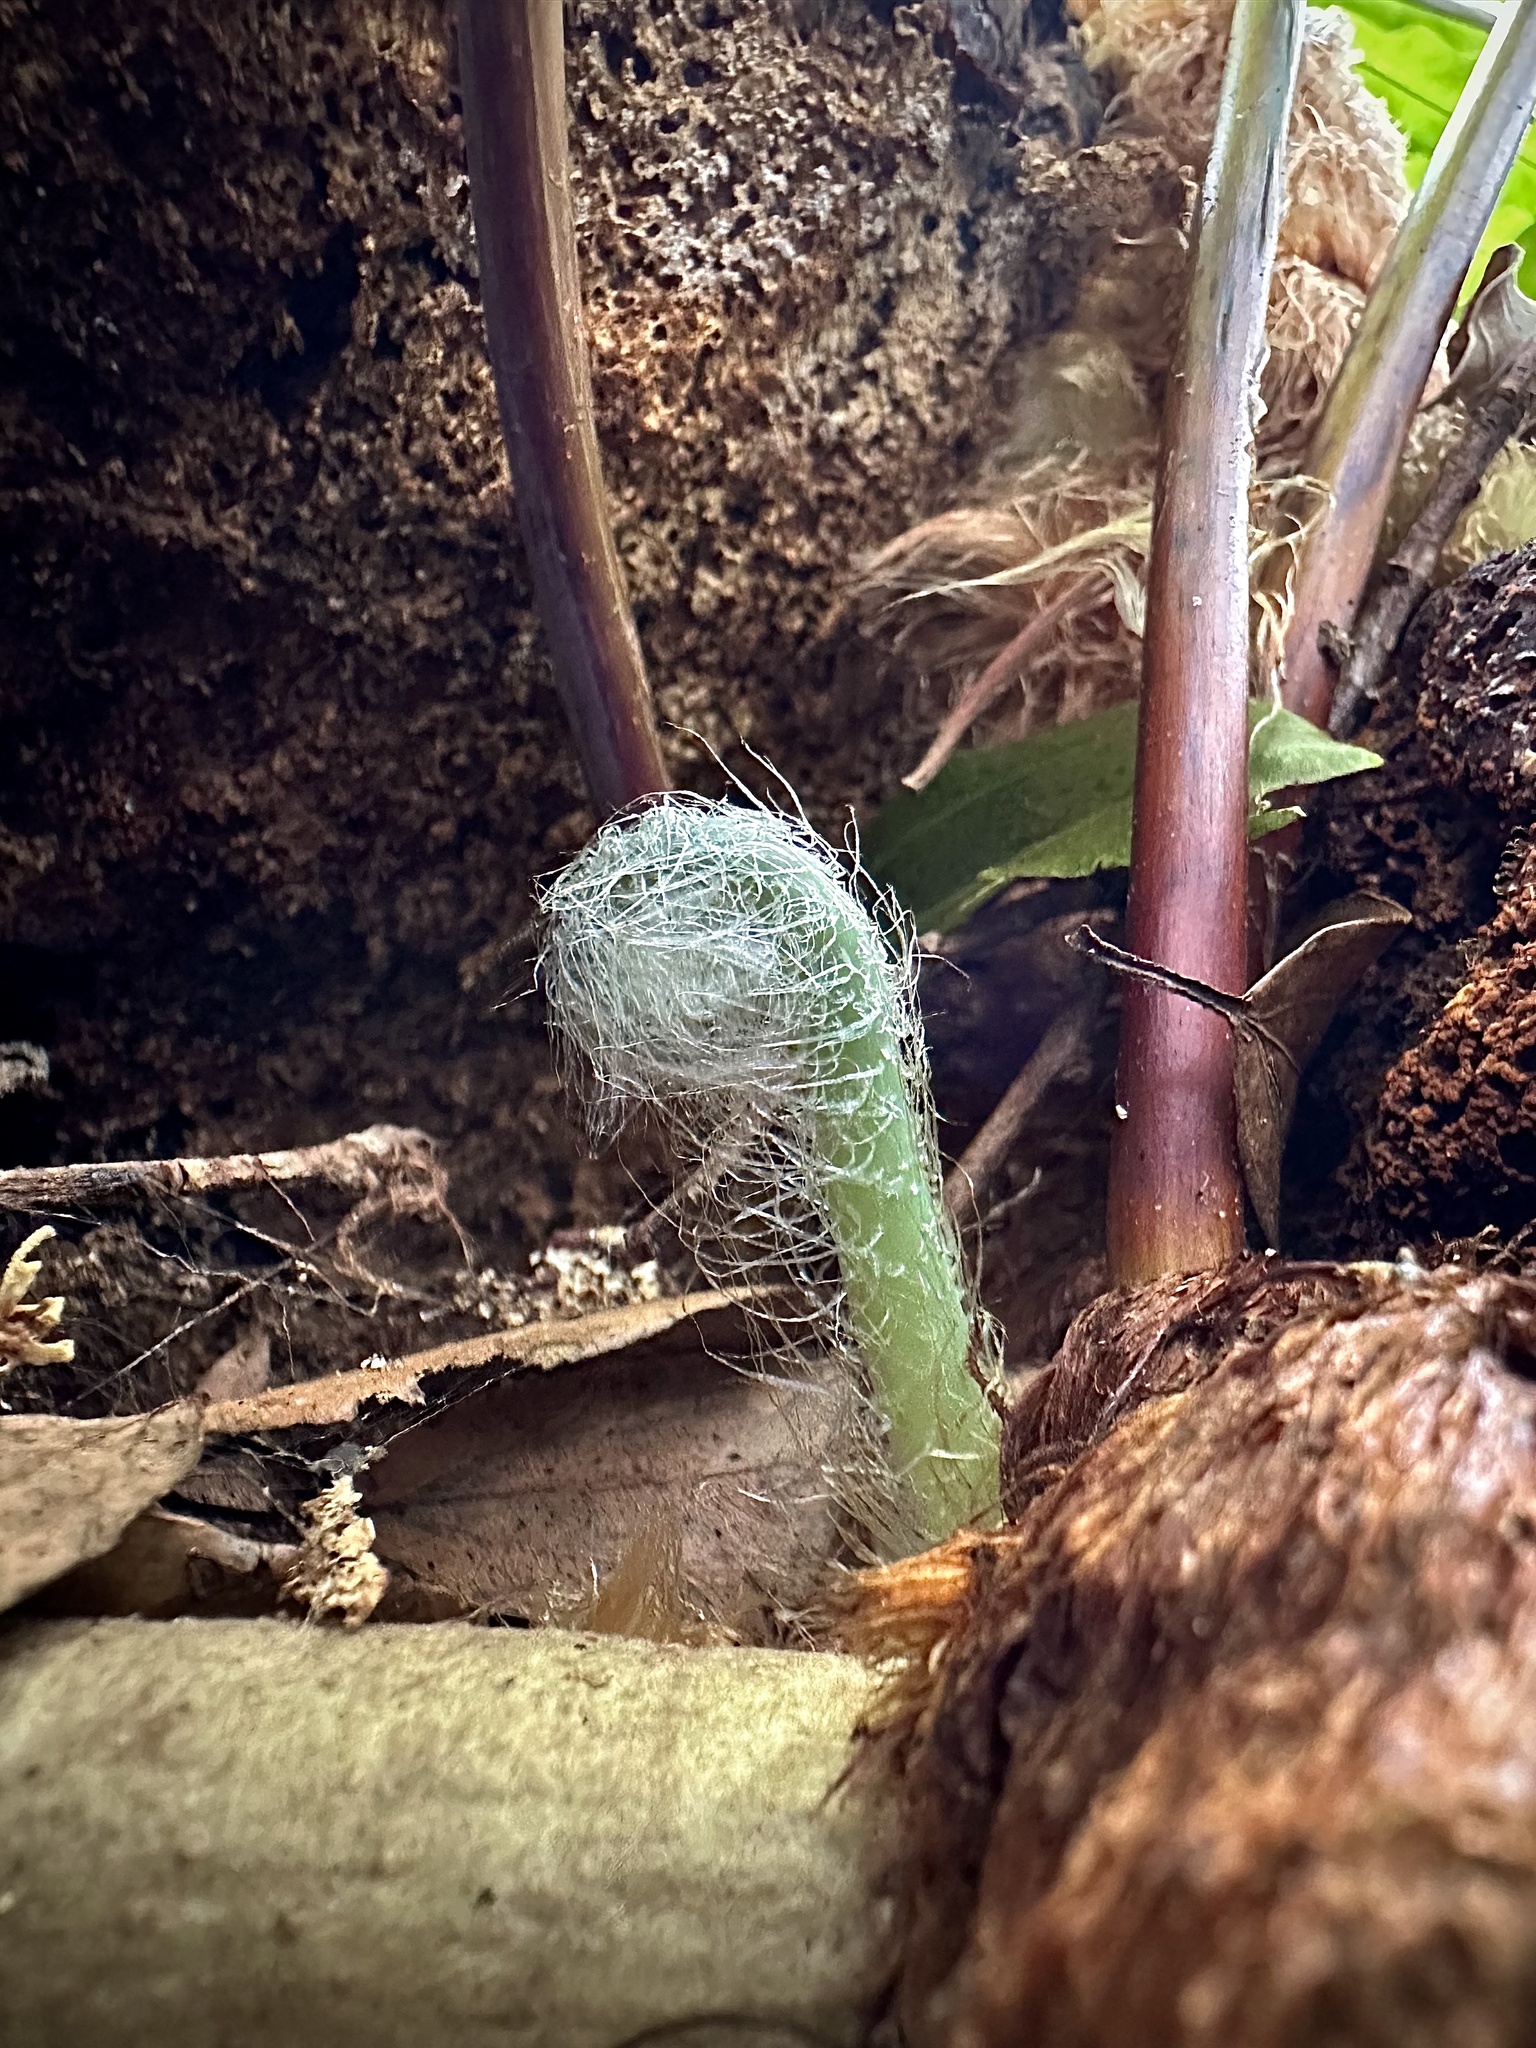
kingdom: Plantae
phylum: Tracheophyta
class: Polypodiopsida
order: Polypodiales
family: Polypodiaceae
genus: Phlebodium
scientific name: Phlebodium aureum
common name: Gold-foot fern
